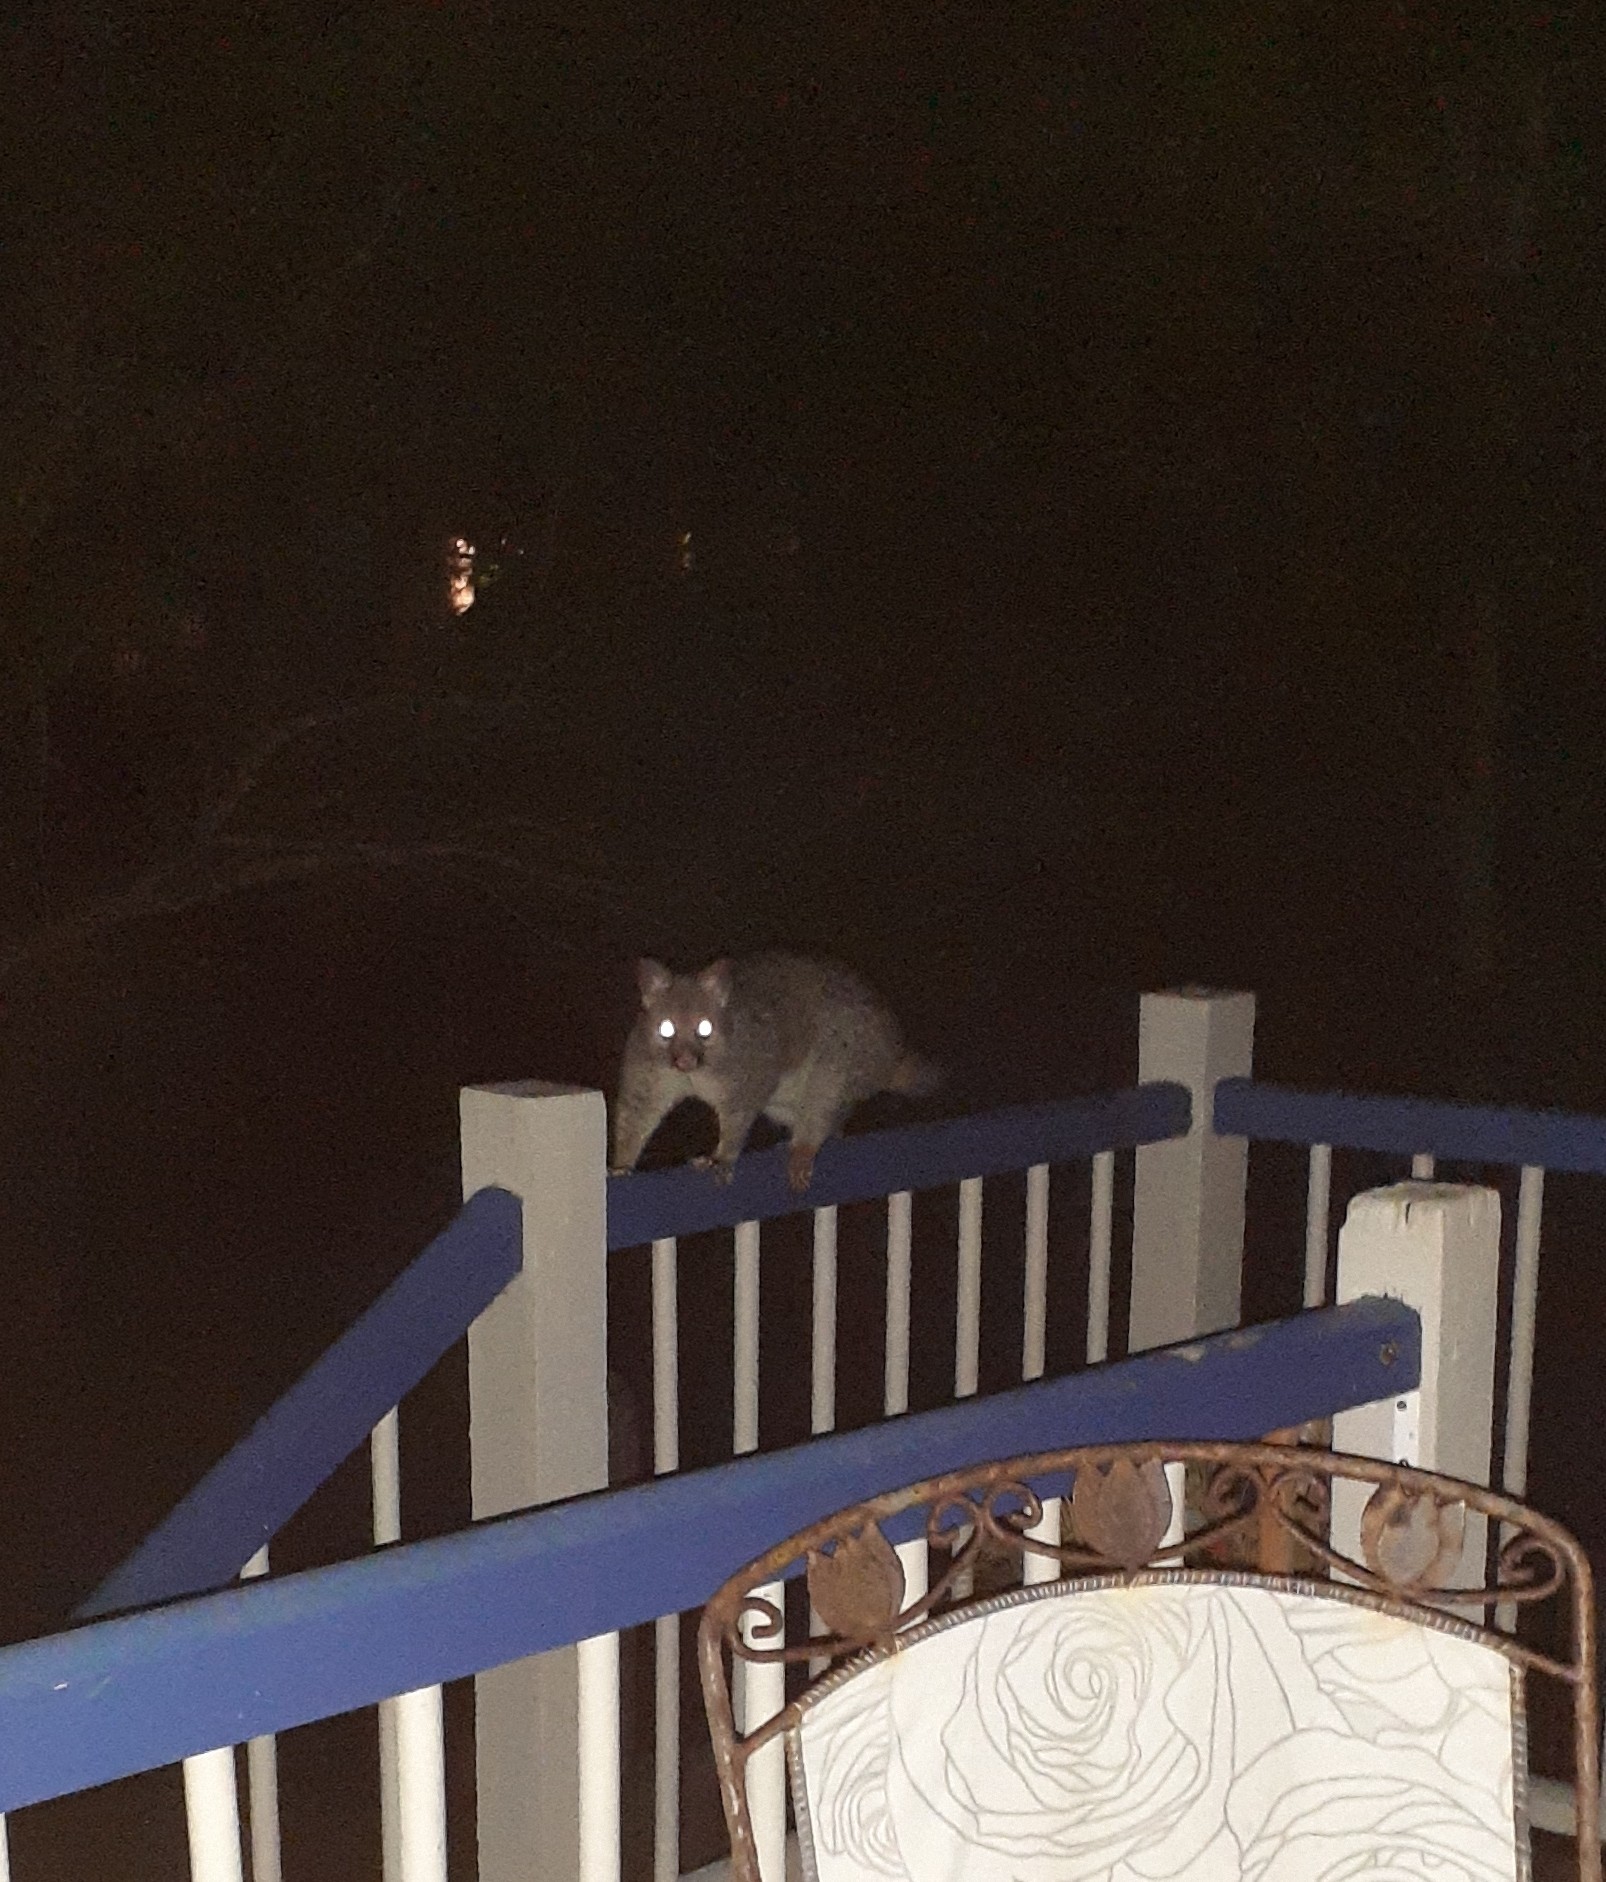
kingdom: Animalia
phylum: Chordata
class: Mammalia
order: Diprotodontia
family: Phalangeridae
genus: Trichosurus
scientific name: Trichosurus vulpecula
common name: Common brushtail
